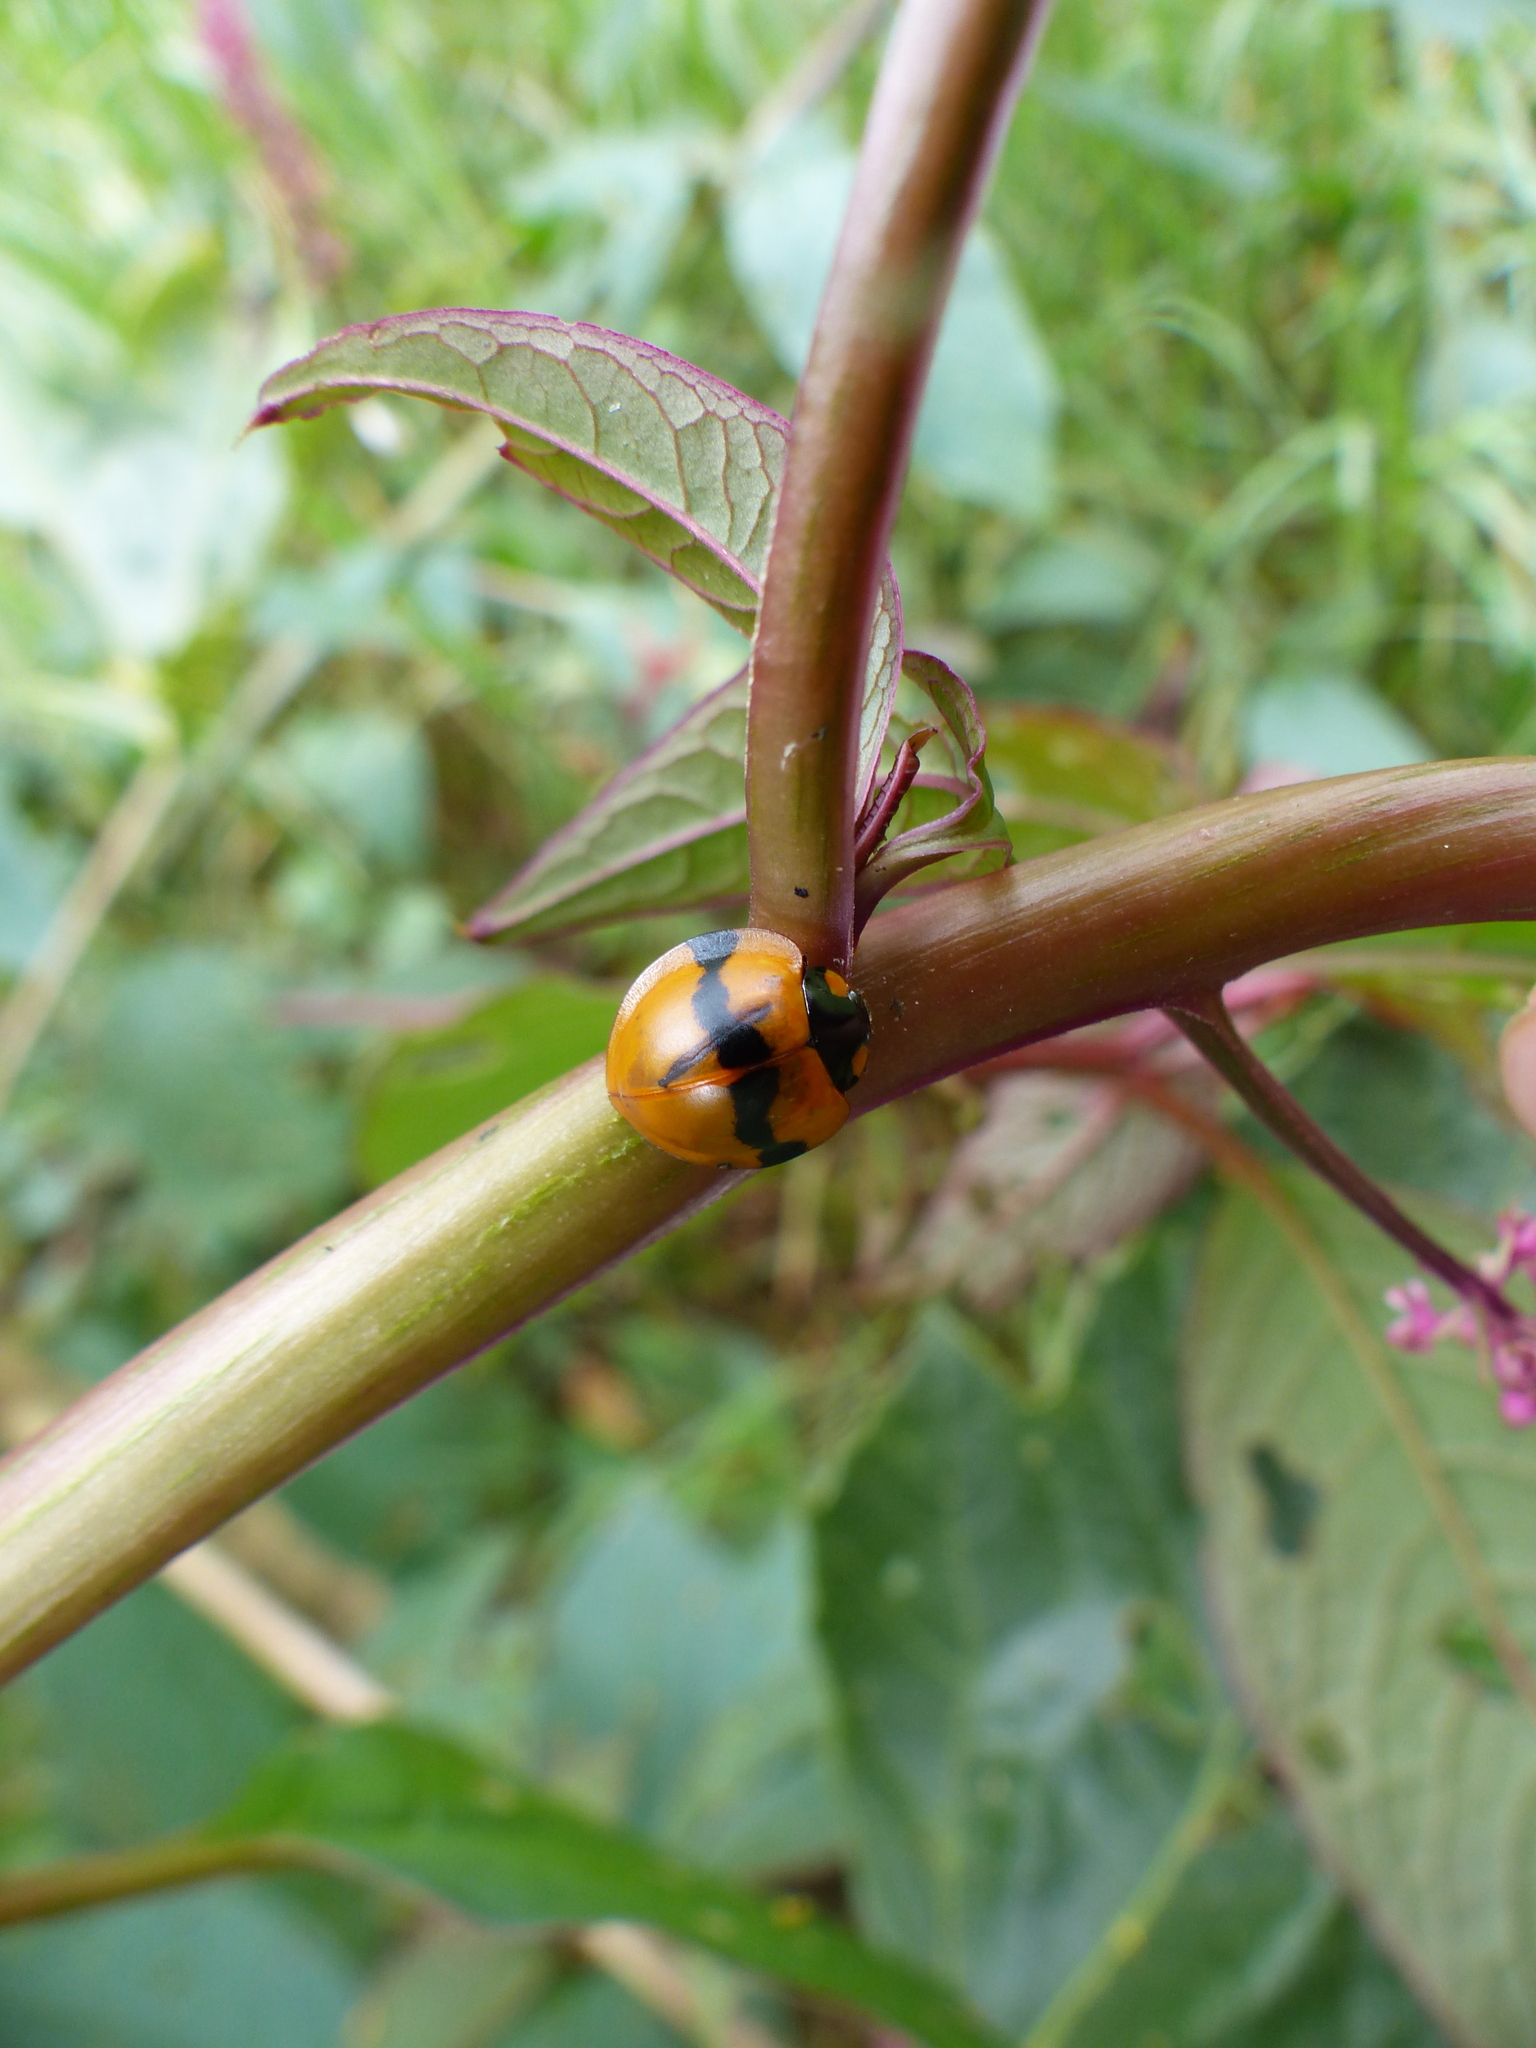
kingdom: Animalia
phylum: Arthropoda
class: Insecta
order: Coleoptera
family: Coccinellidae
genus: Neda
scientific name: Neda norrisi
